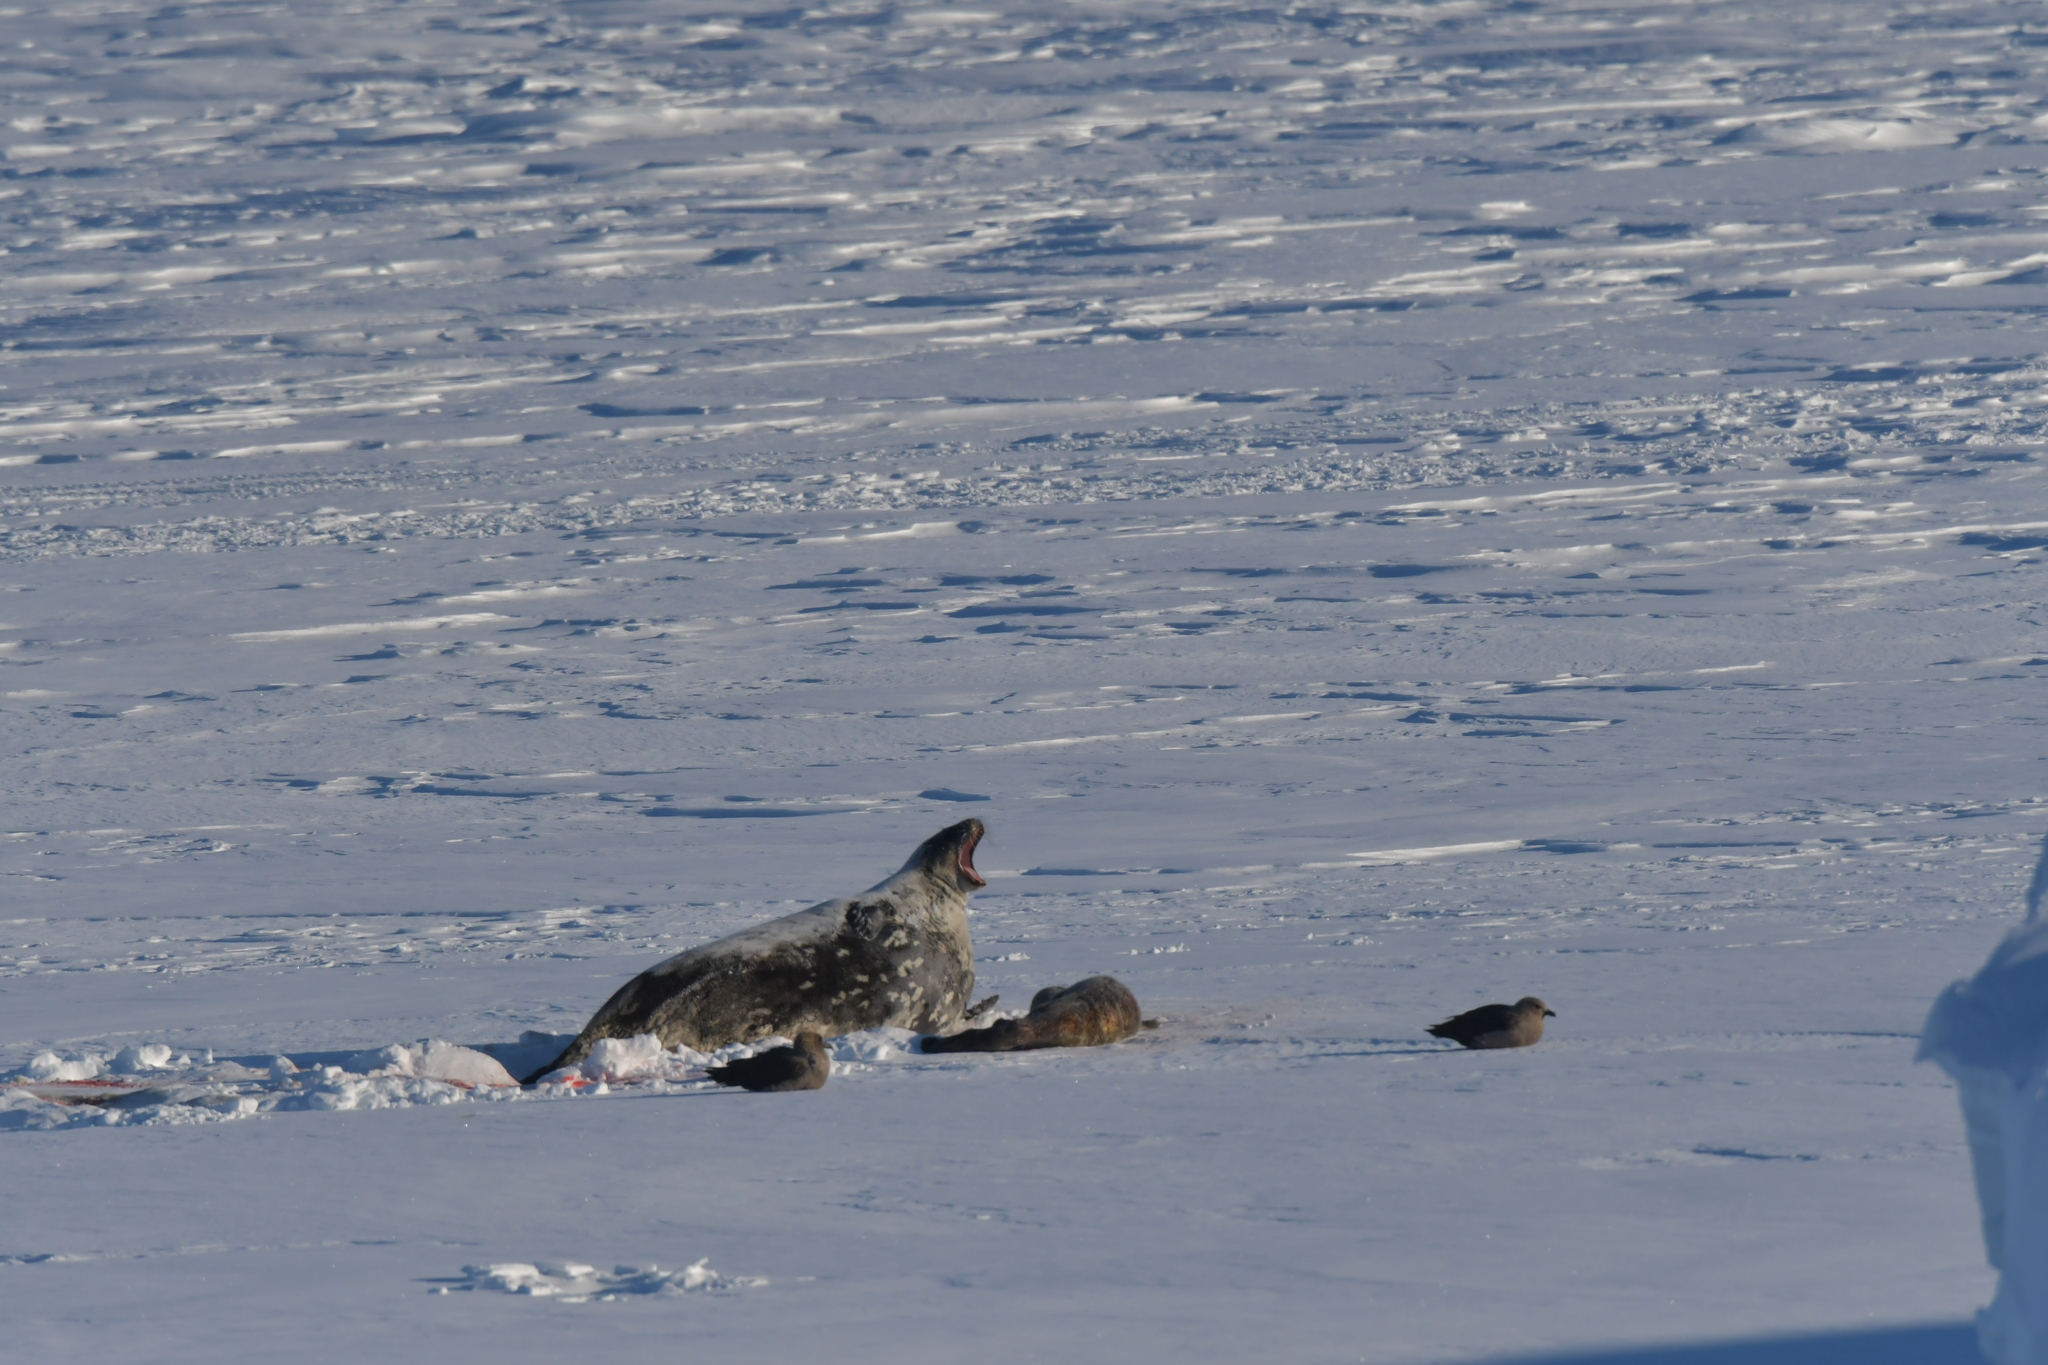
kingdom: Animalia
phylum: Chordata
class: Mammalia
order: Carnivora
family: Phocidae
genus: Leptonychotes
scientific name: Leptonychotes weddellii
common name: Weddell seal
